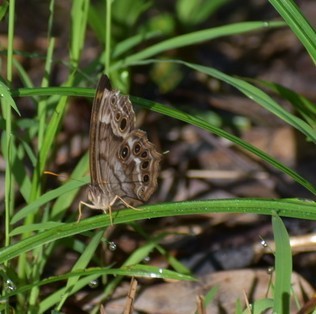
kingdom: Animalia
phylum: Arthropoda
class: Insecta
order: Lepidoptera
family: Nymphalidae
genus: Enodia
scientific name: Enodia portlandia
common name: Southern pearly-eye
